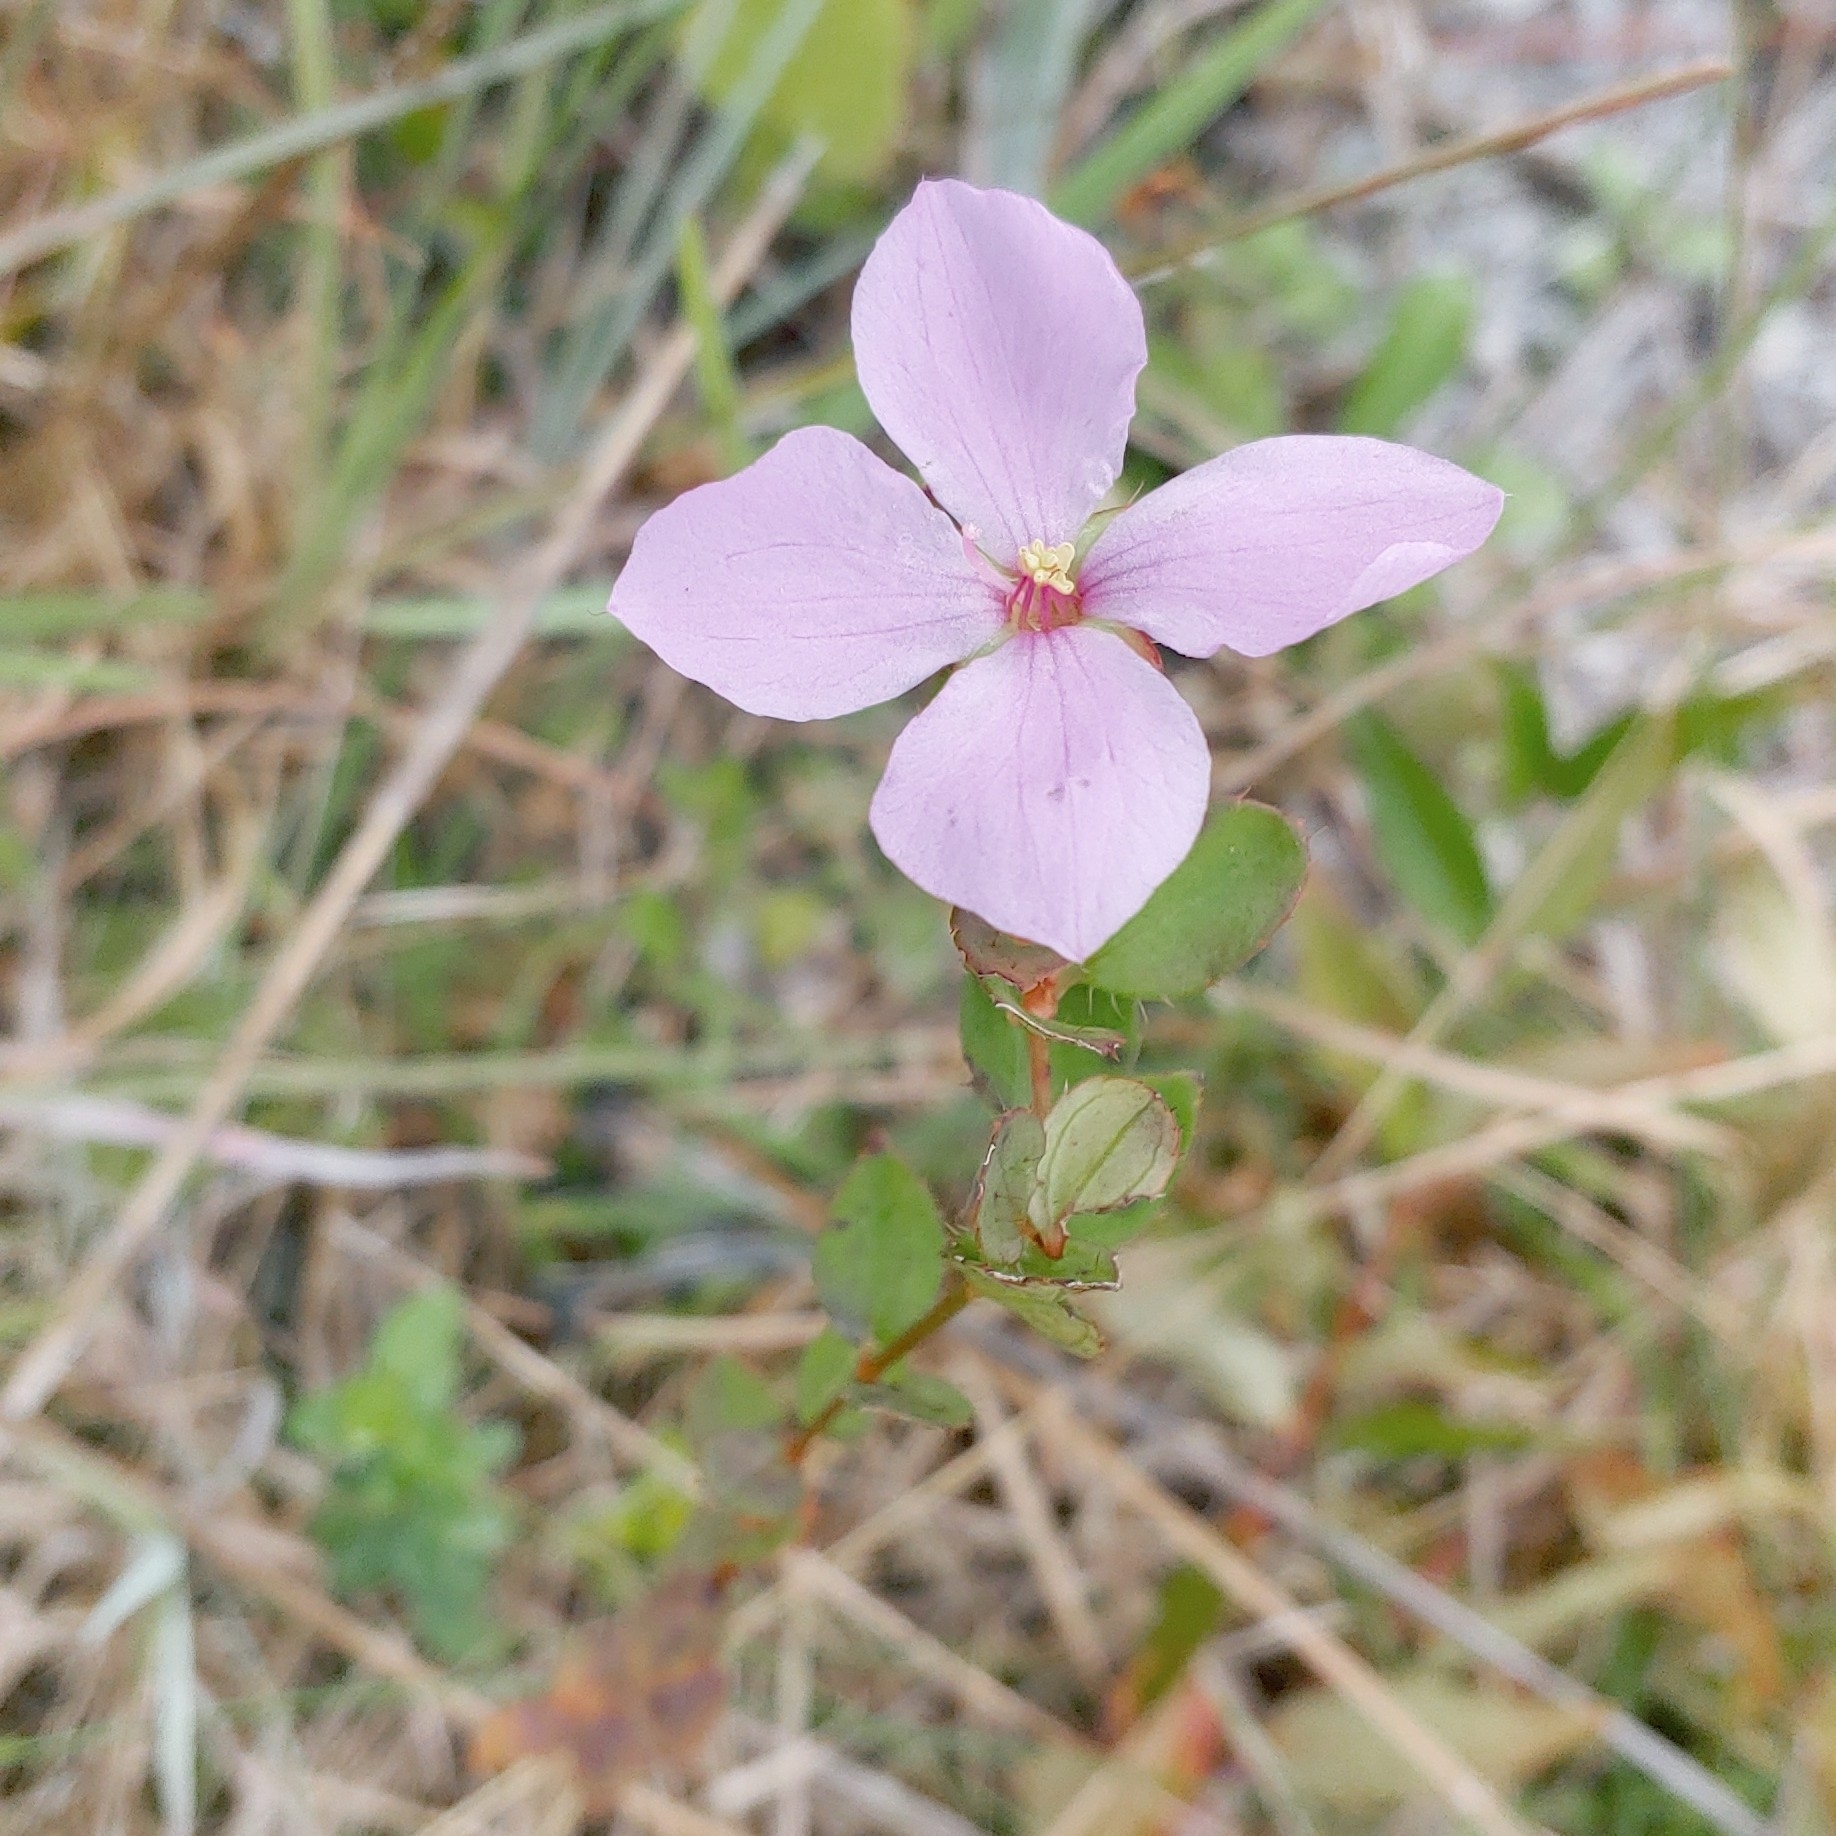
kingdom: Plantae
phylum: Tracheophyta
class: Magnoliopsida
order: Myrtales
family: Melastomataceae
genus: Rhexia
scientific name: Rhexia petiolata
